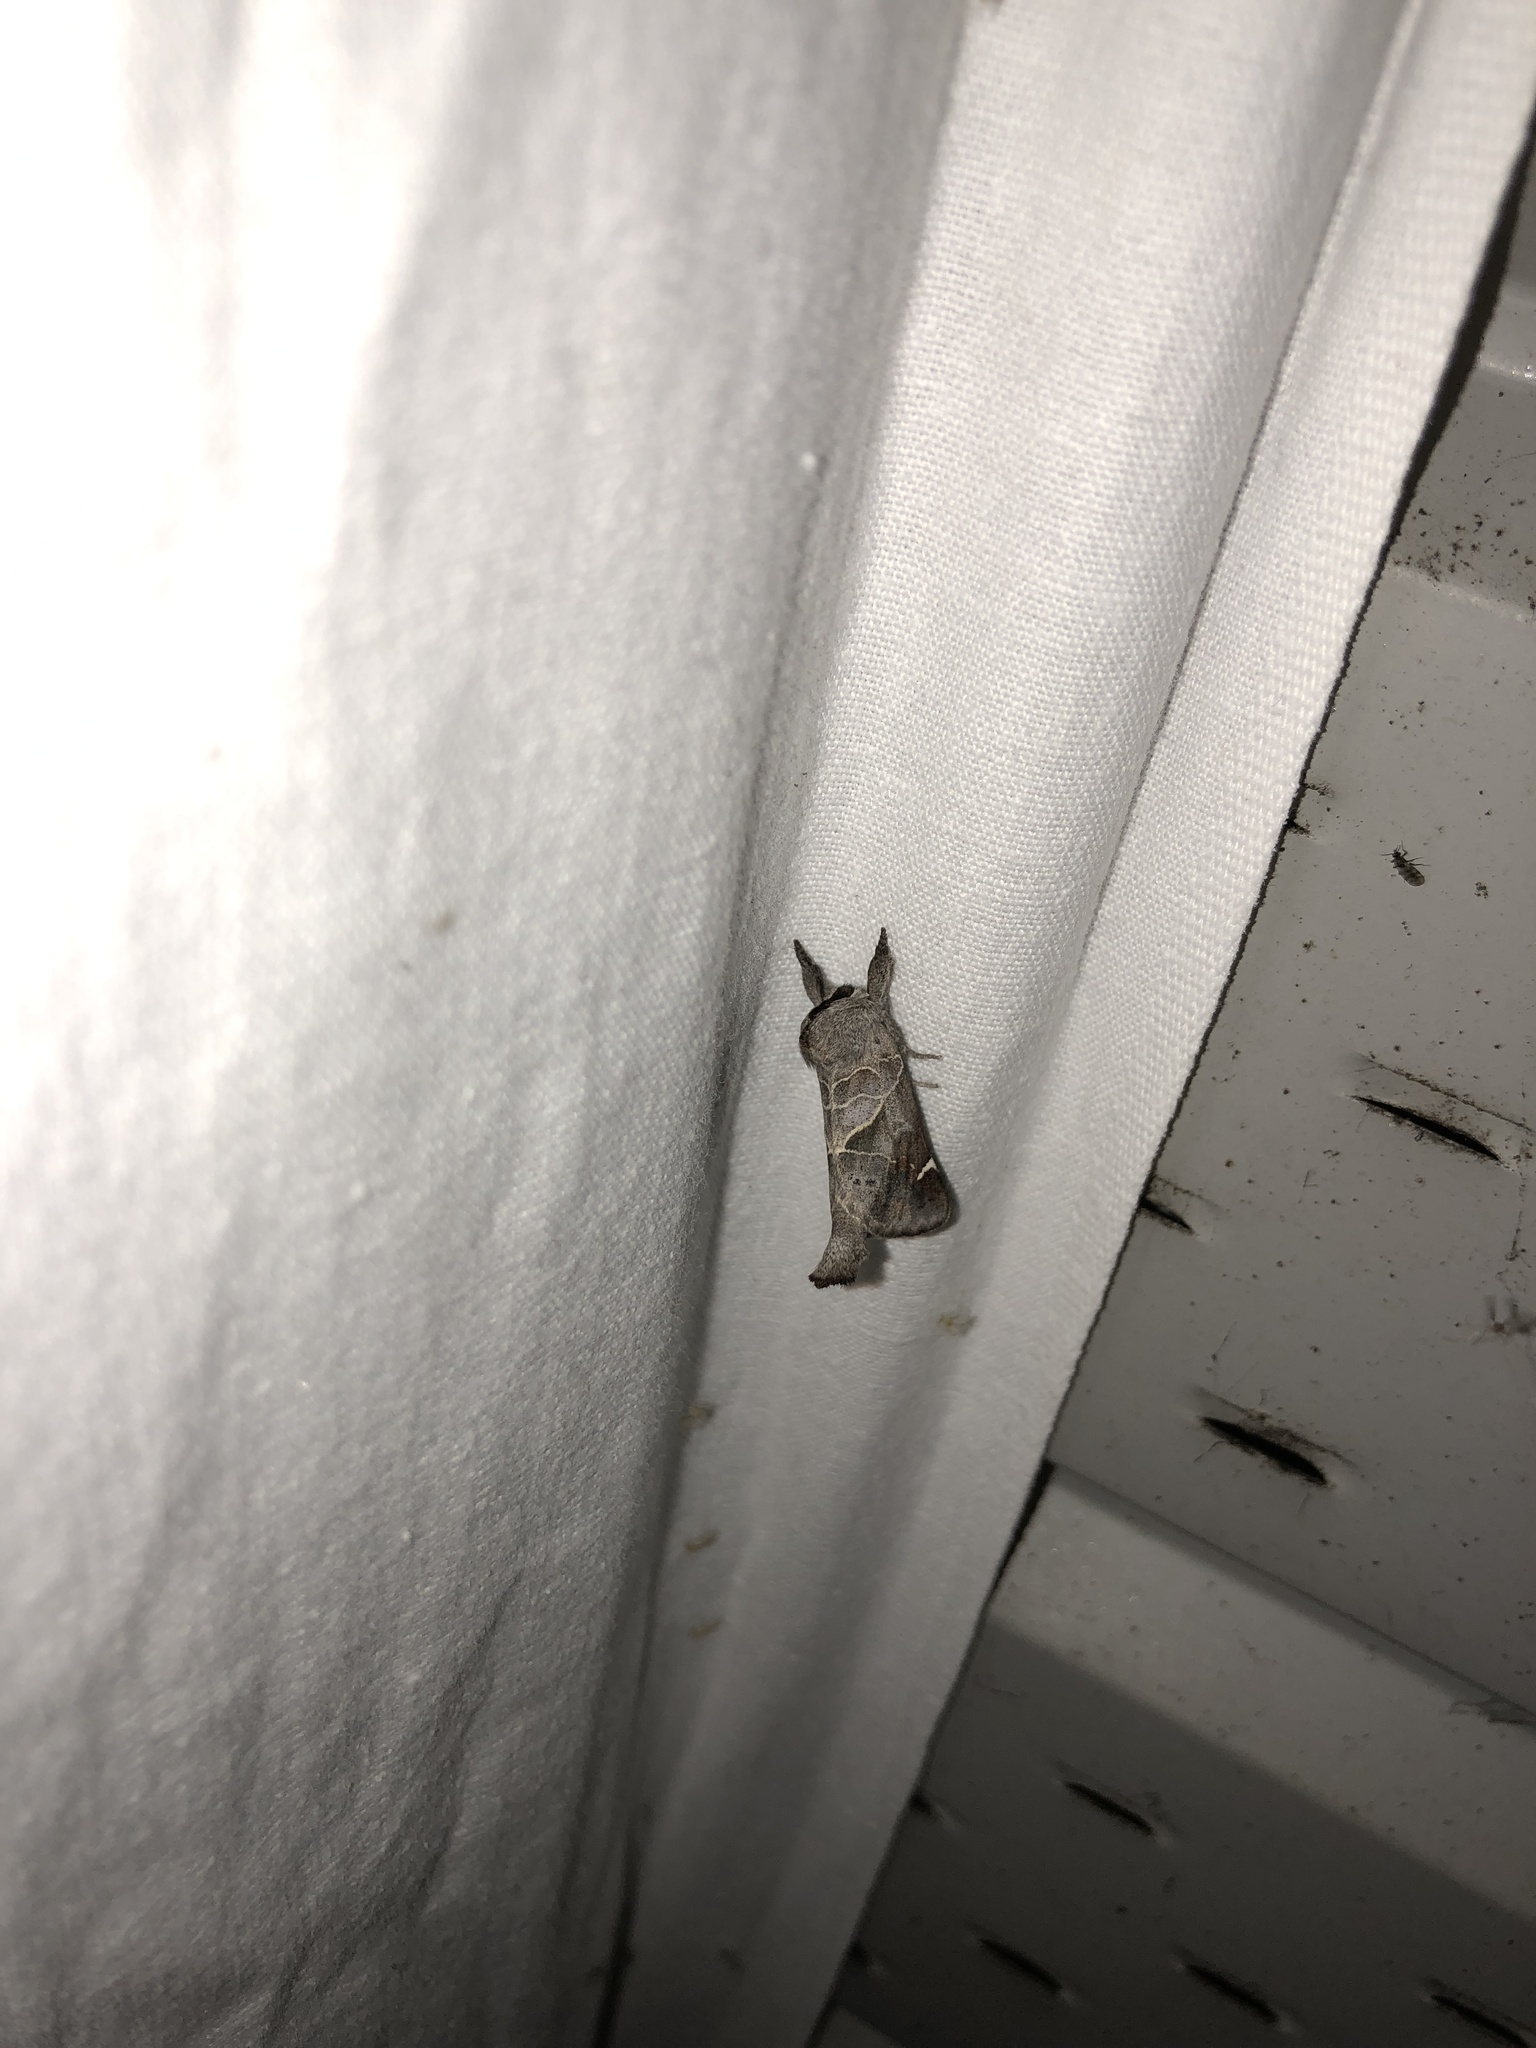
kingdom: Animalia
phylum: Arthropoda
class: Insecta
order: Lepidoptera
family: Notodontidae
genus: Clostera
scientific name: Clostera apicalis
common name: Apical prominent
